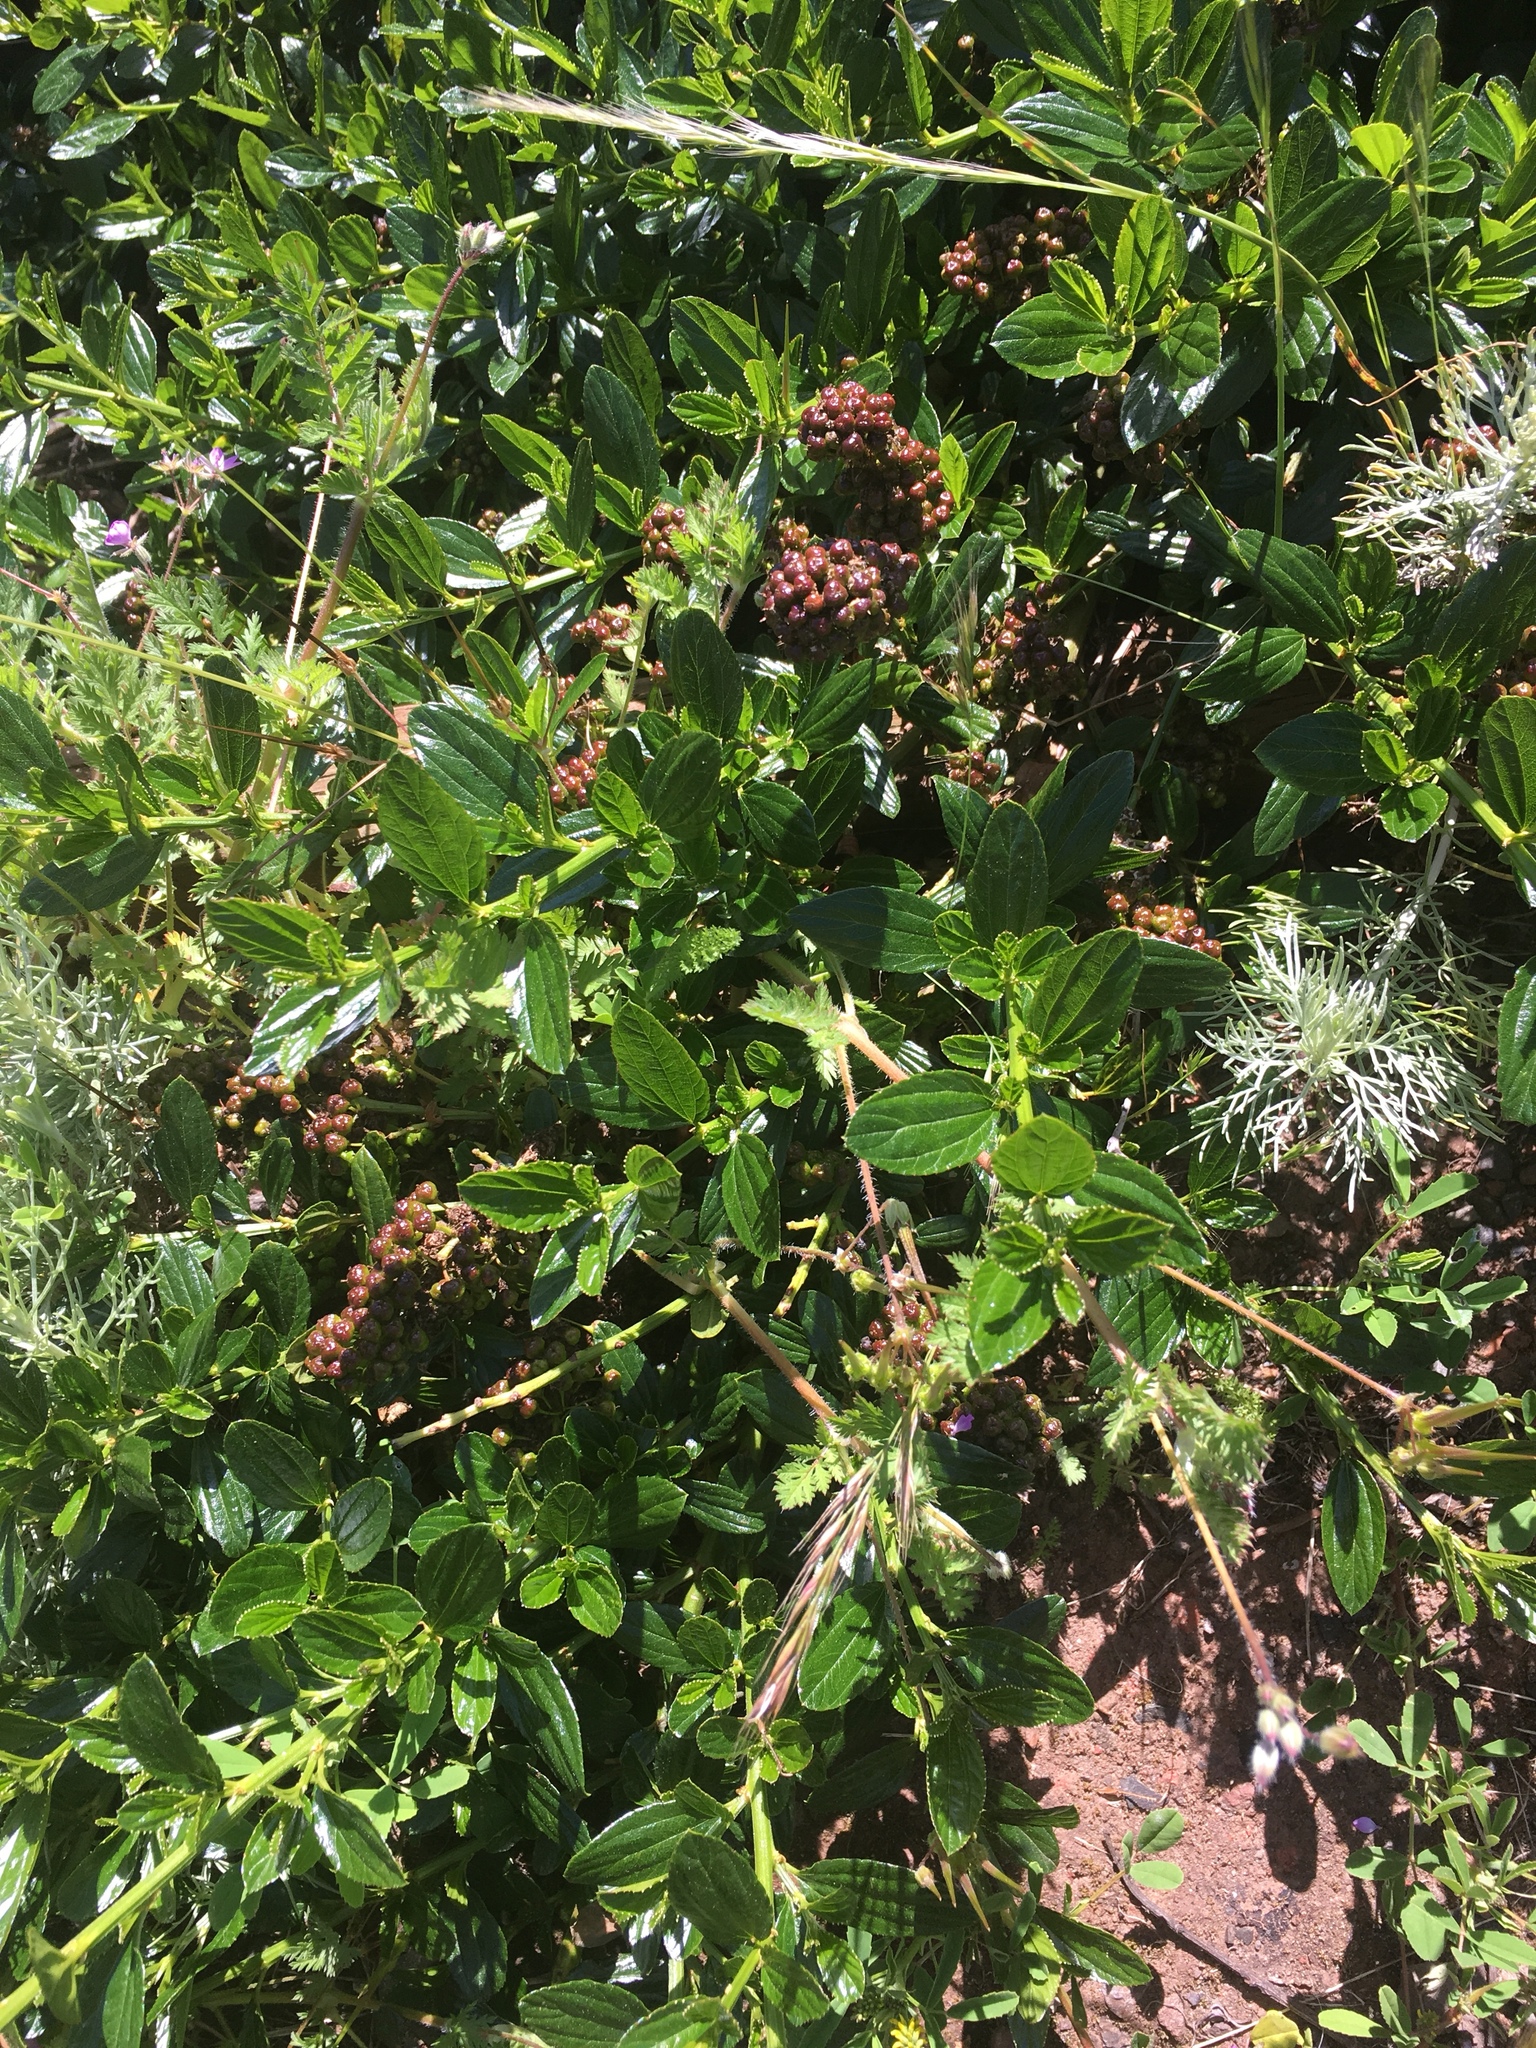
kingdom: Plantae
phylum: Tracheophyta
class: Magnoliopsida
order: Rosales
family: Rhamnaceae
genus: Ceanothus
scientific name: Ceanothus thyrsiflorus
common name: California-lilac
